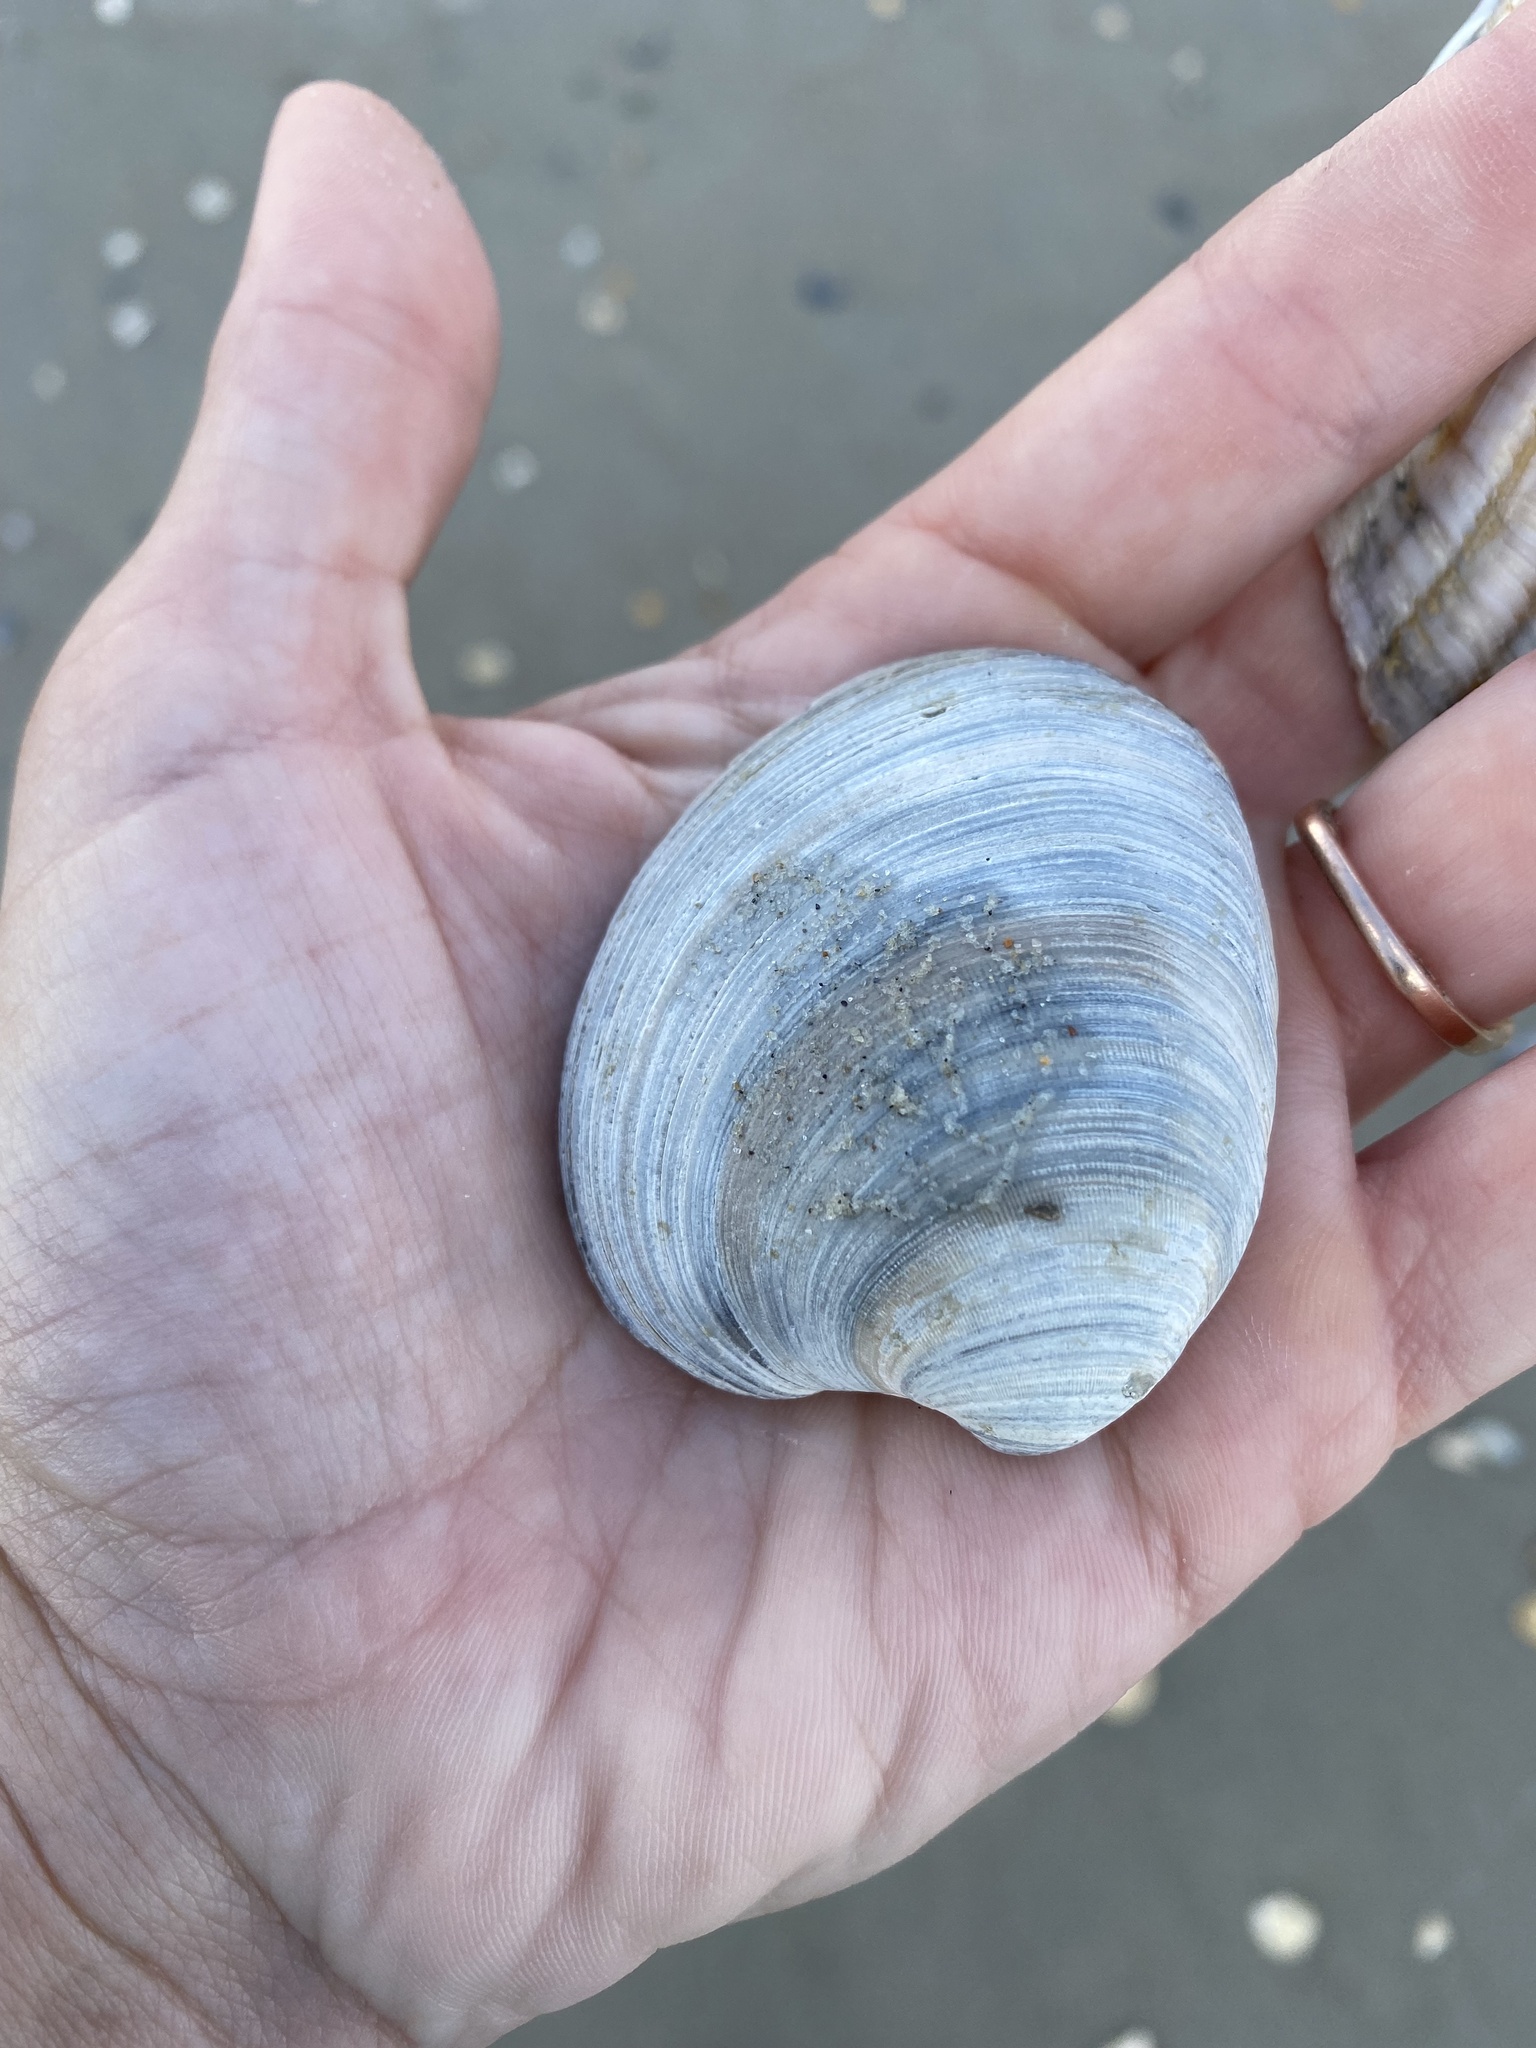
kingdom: Animalia
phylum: Mollusca
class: Bivalvia
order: Venerida
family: Veneridae
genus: Mercenaria
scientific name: Mercenaria campechiensis
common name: Südliche quahog-muschel
